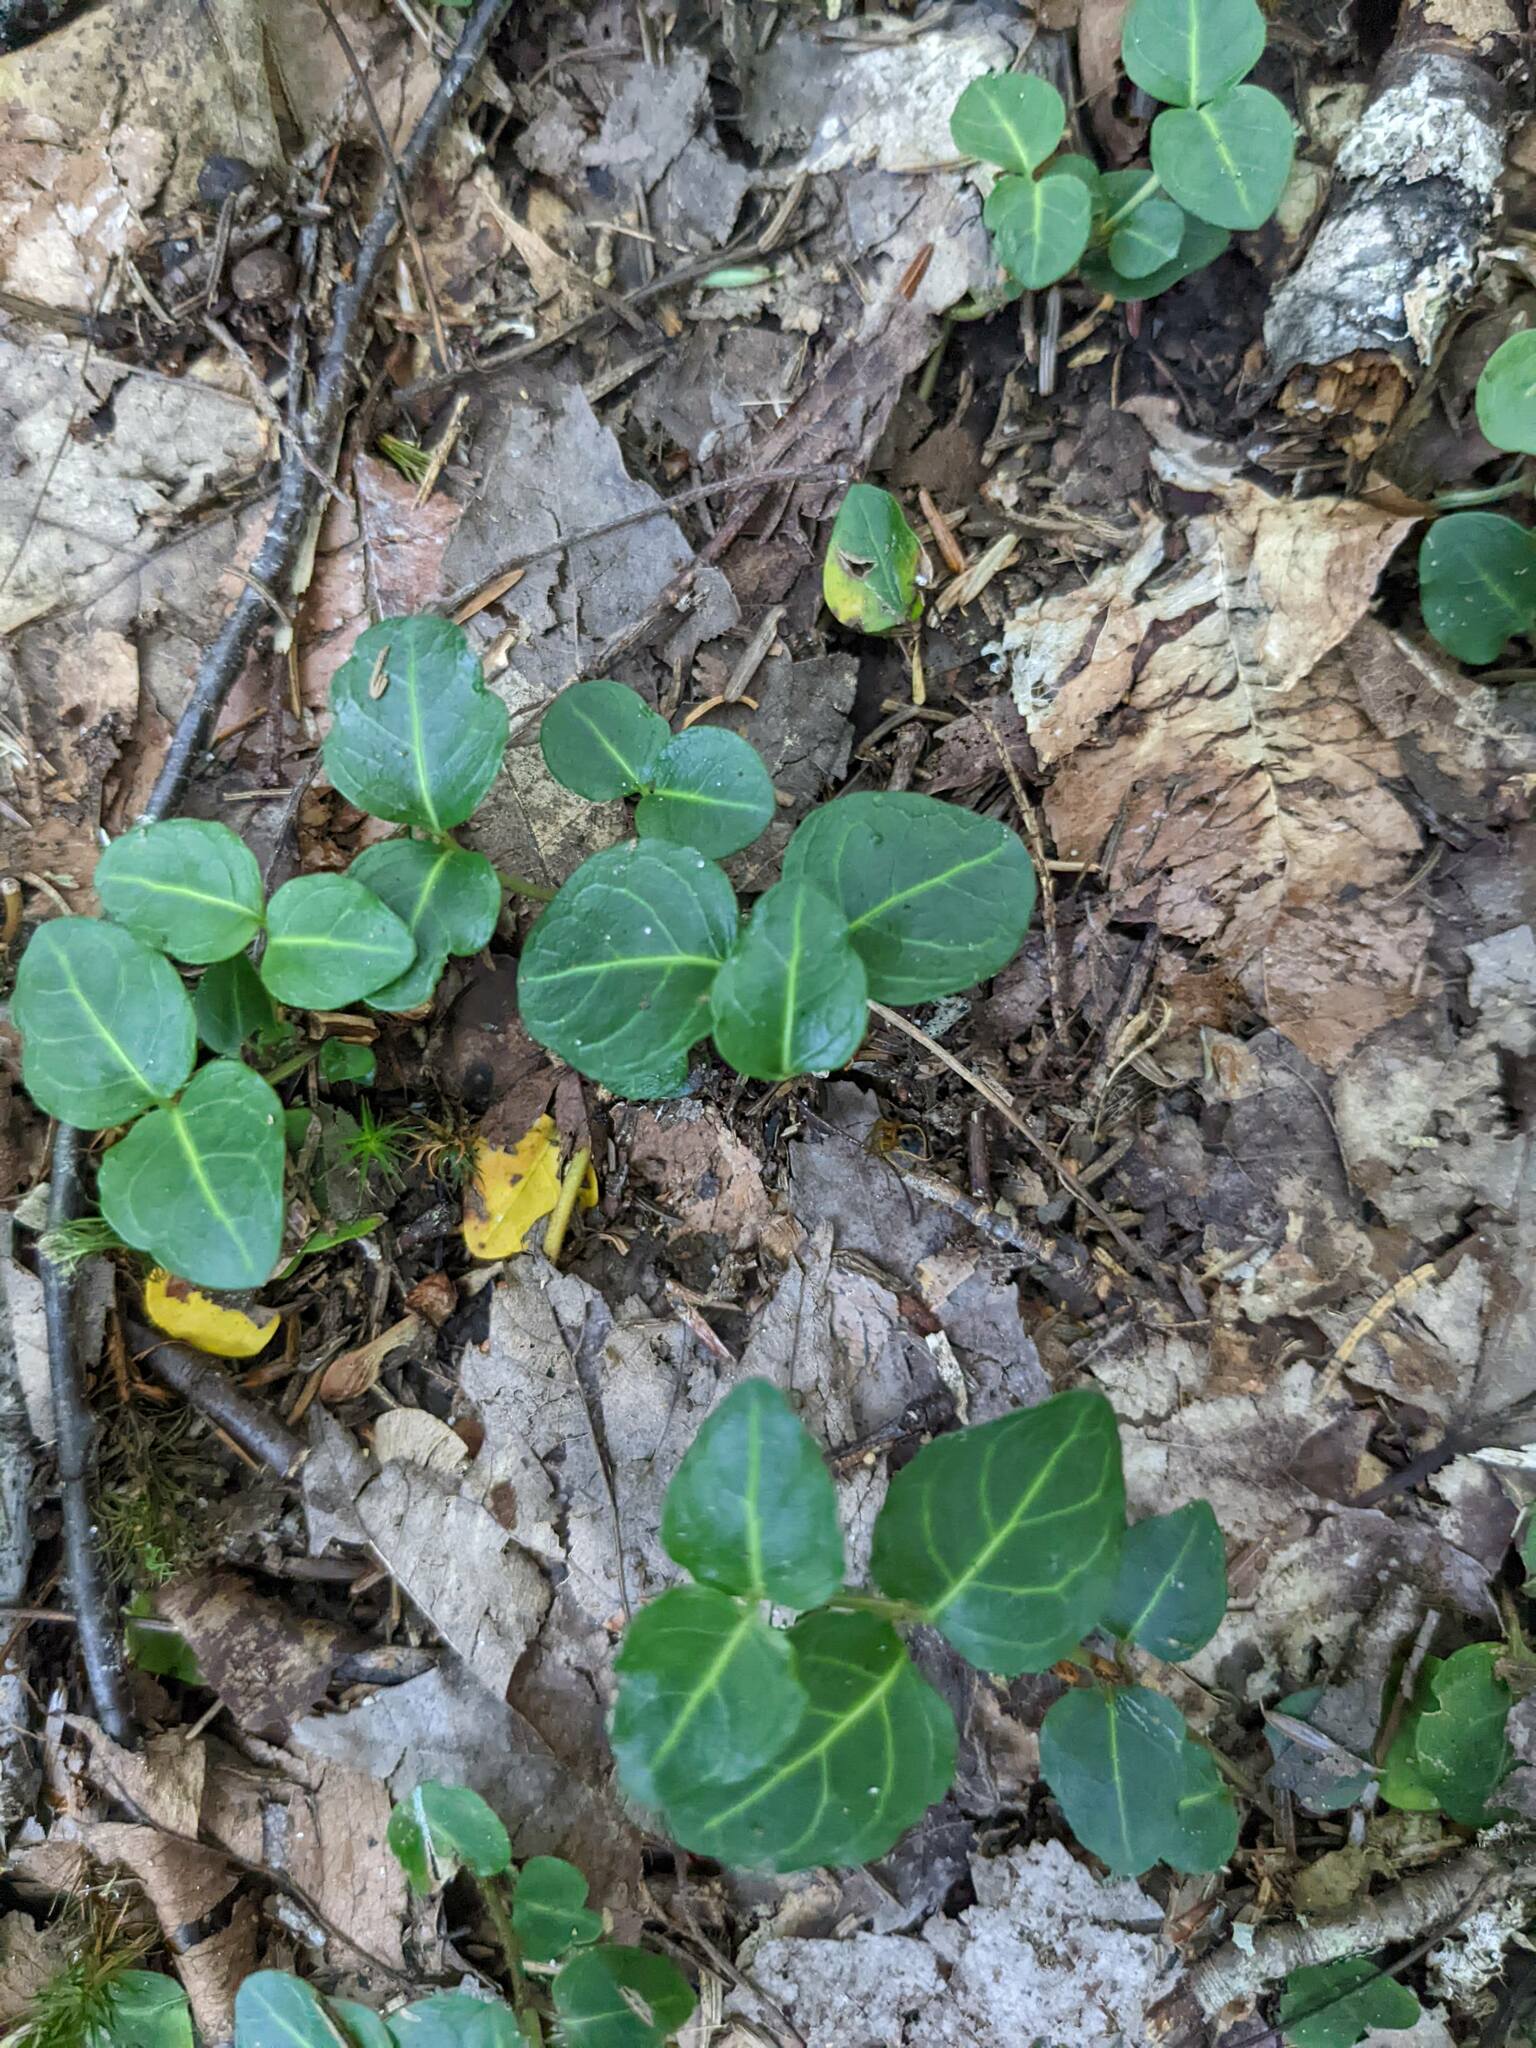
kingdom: Plantae
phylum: Tracheophyta
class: Magnoliopsida
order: Gentianales
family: Rubiaceae
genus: Mitchella
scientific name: Mitchella repens
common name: Partridge-berry
